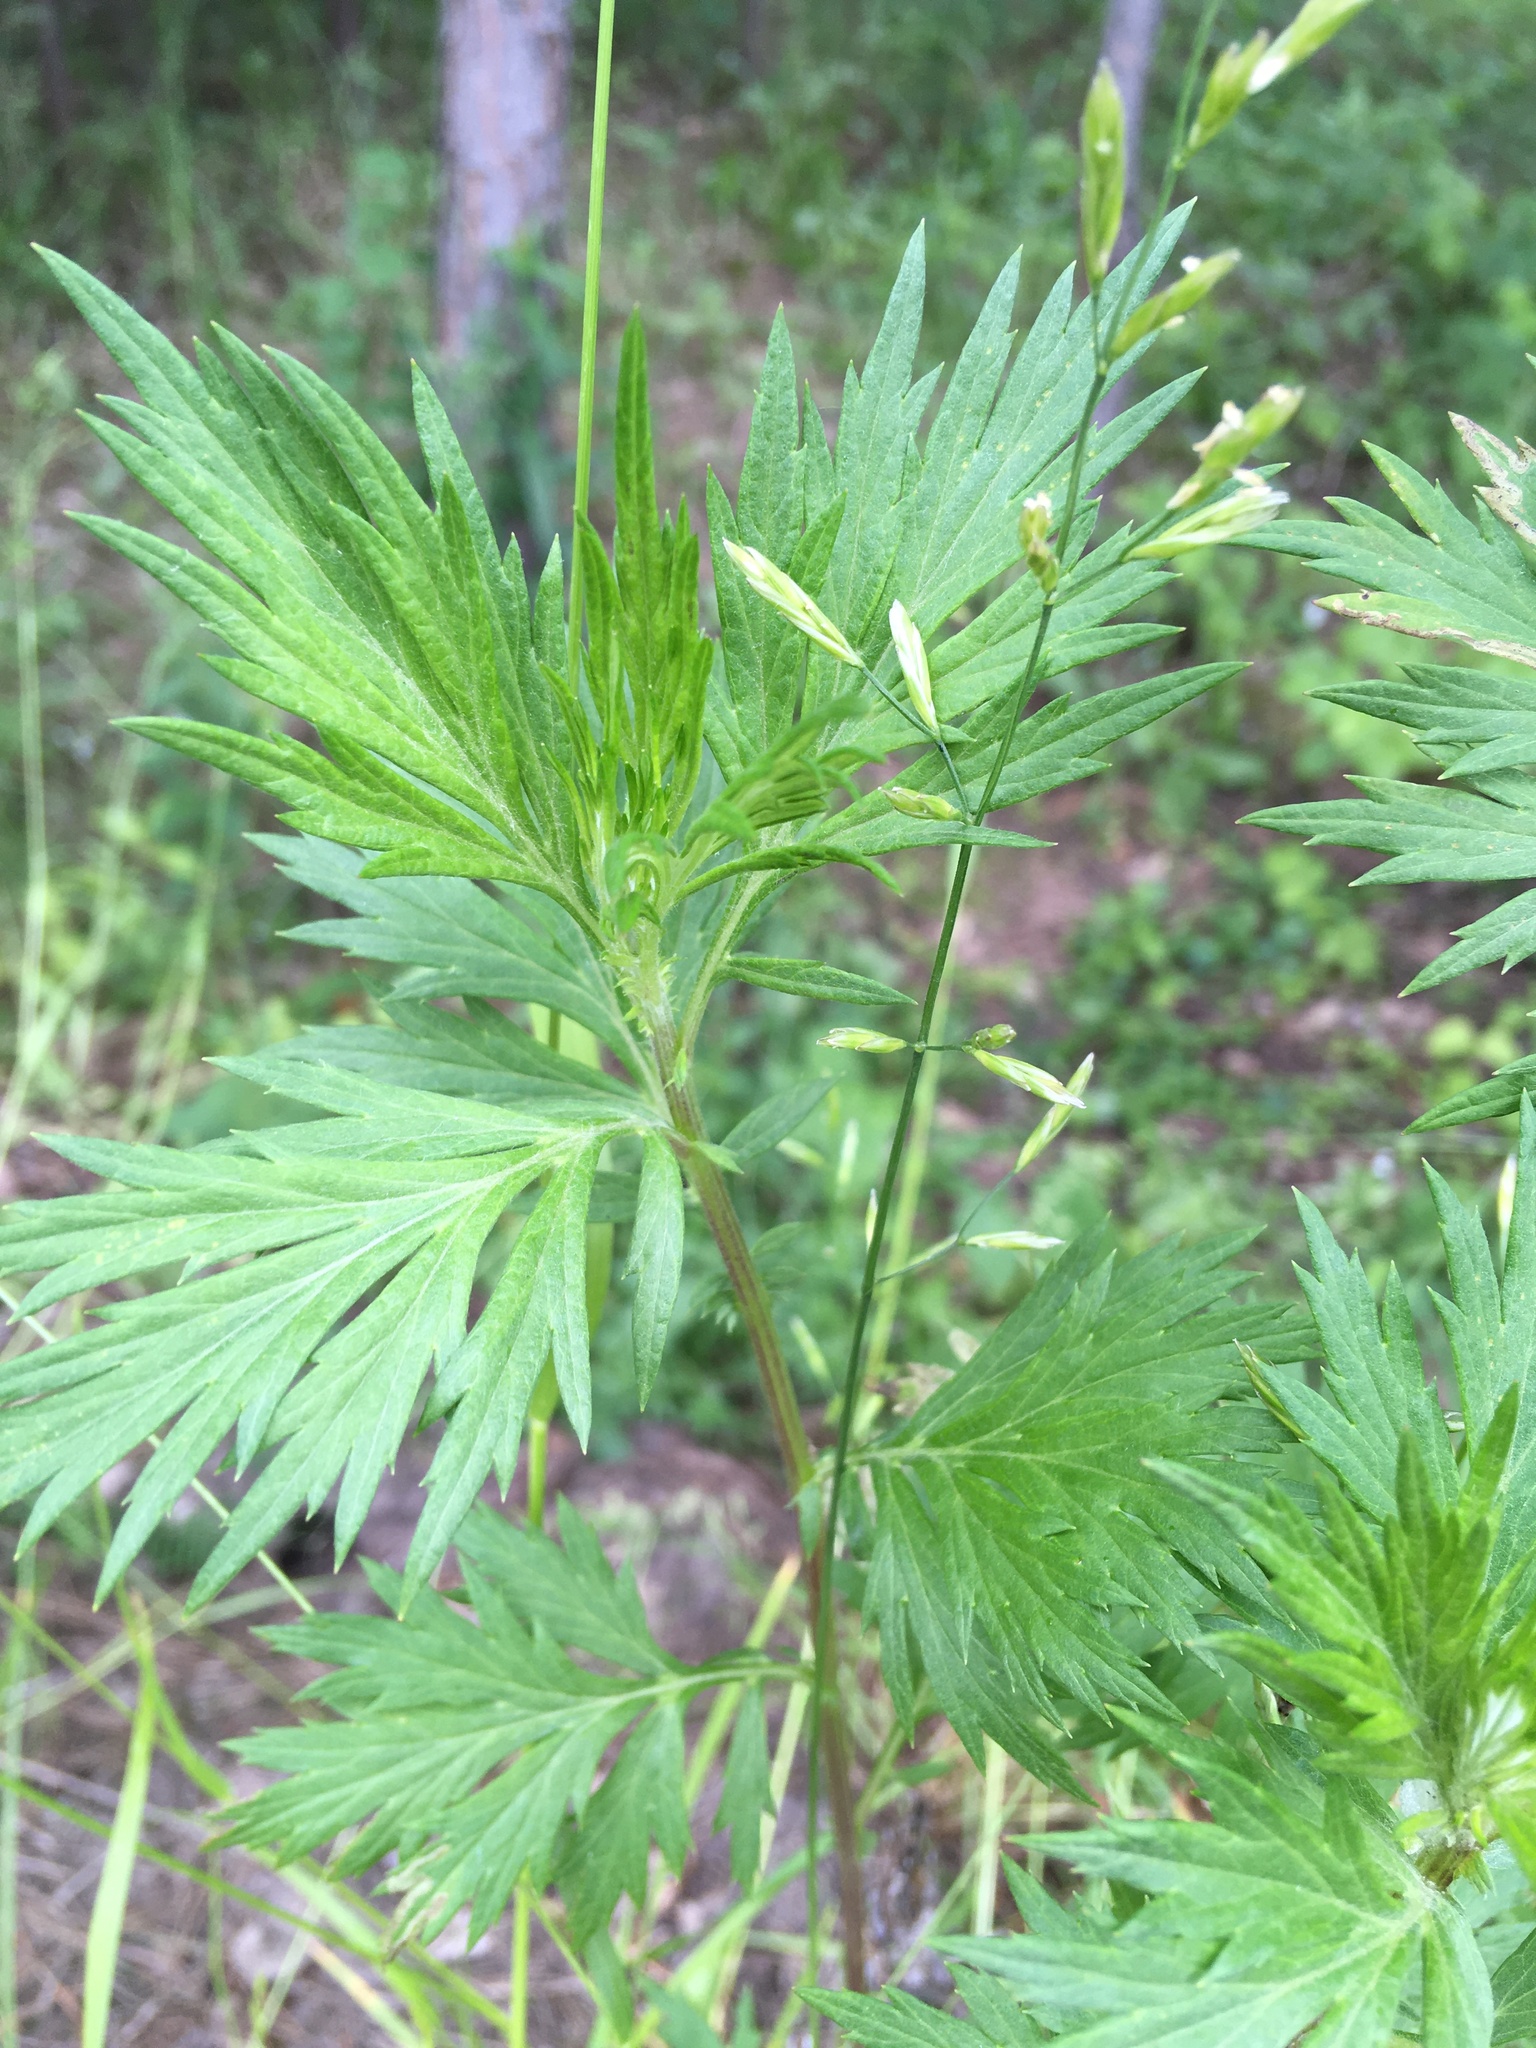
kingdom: Plantae
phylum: Tracheophyta
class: Magnoliopsida
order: Asterales
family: Asteraceae
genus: Artemisia
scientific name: Artemisia vulgaris
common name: Mugwort
